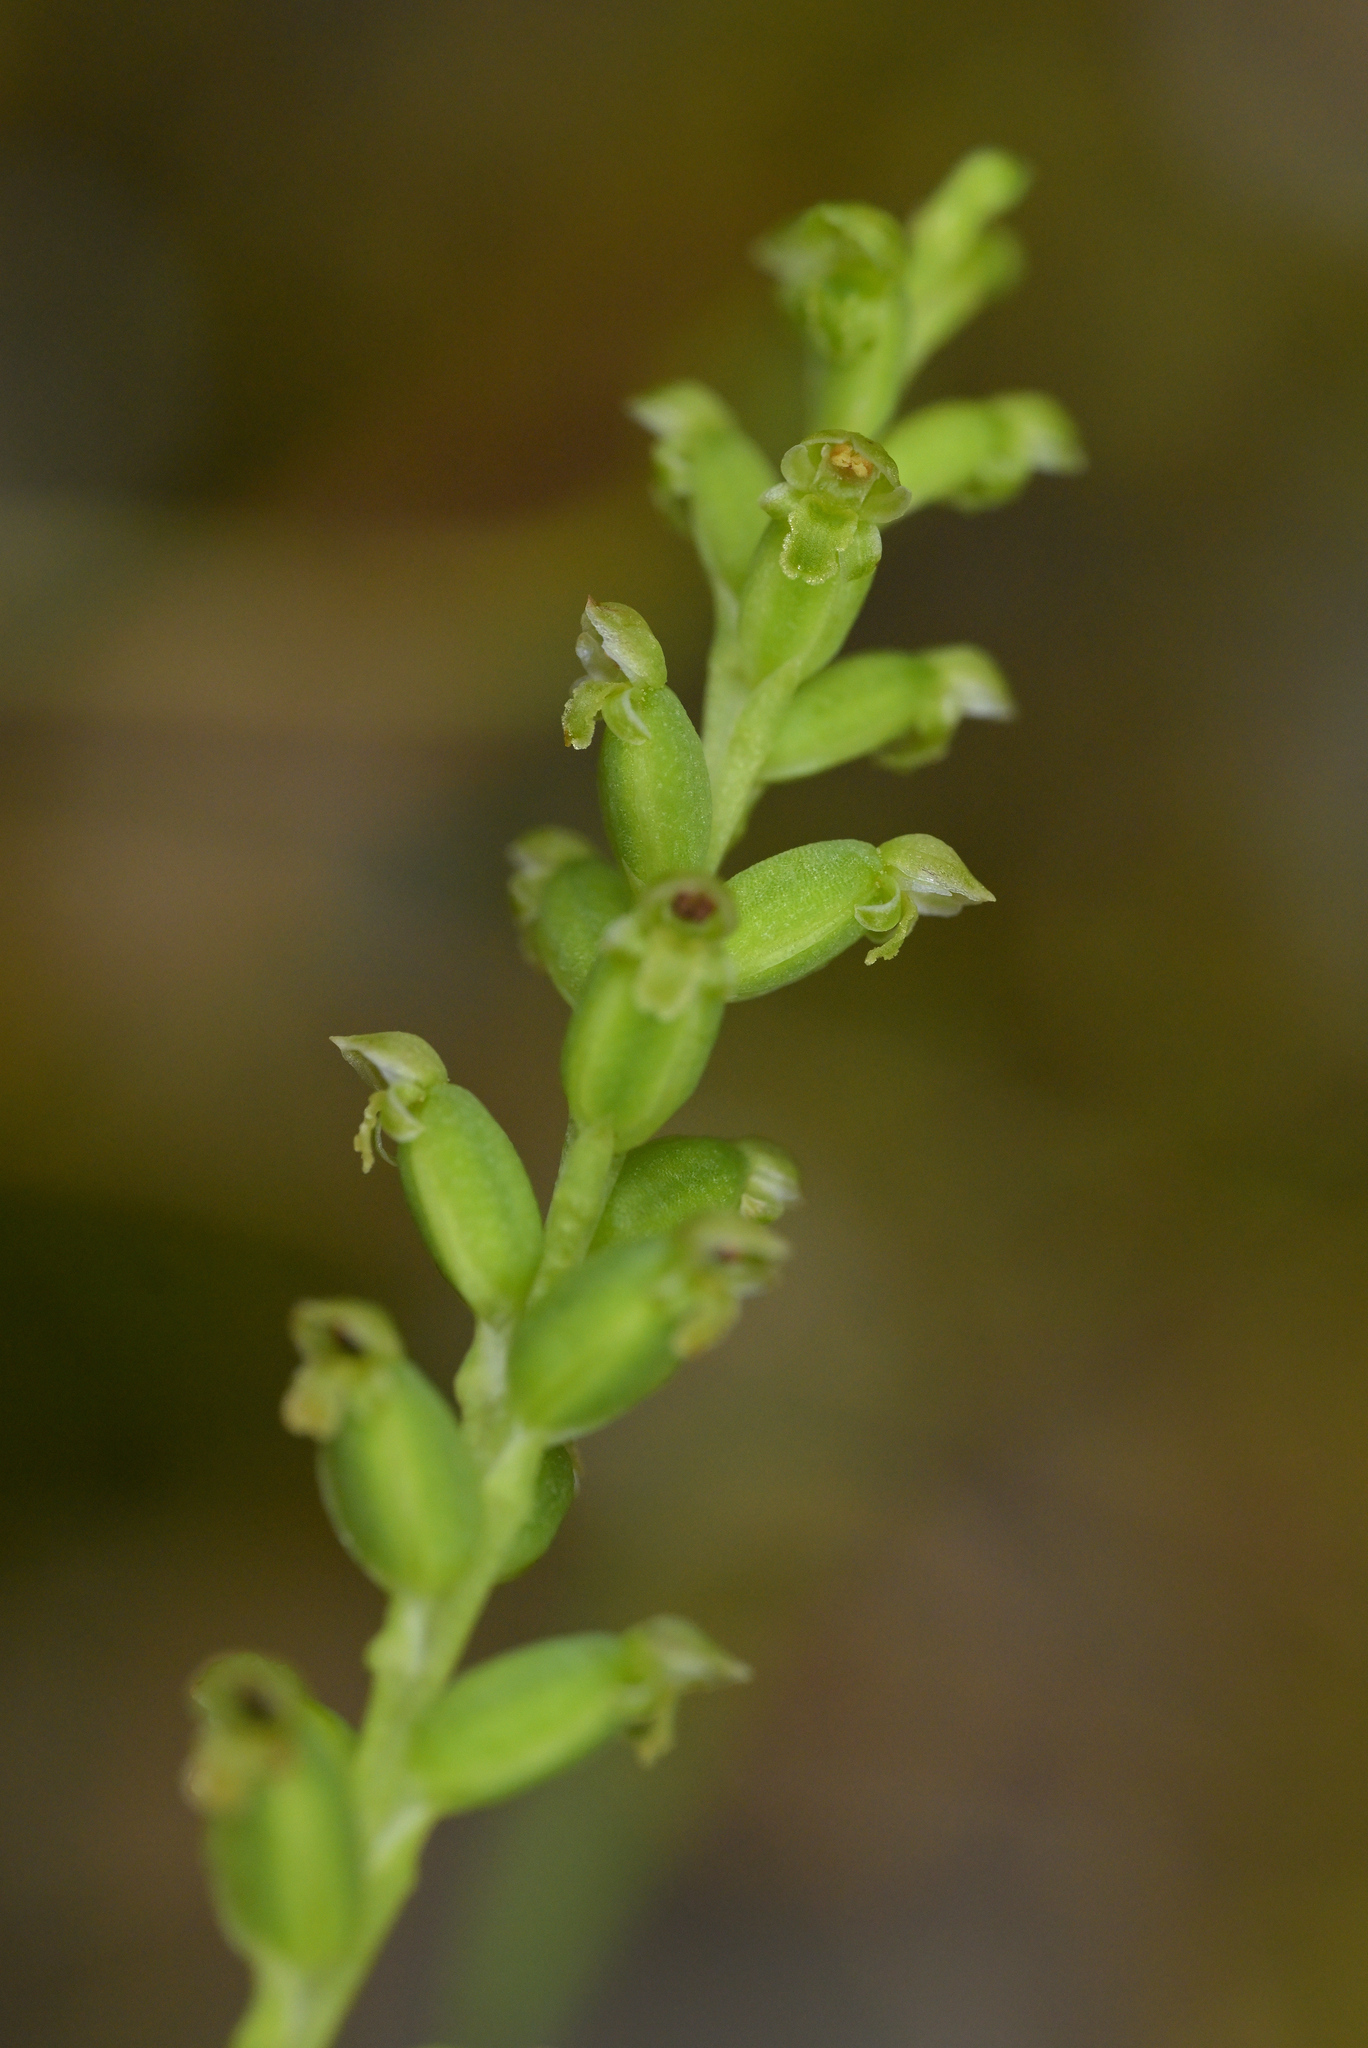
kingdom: Plantae
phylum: Tracheophyta
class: Liliopsida
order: Asparagales
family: Orchidaceae
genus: Microtis
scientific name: Microtis unifolia
